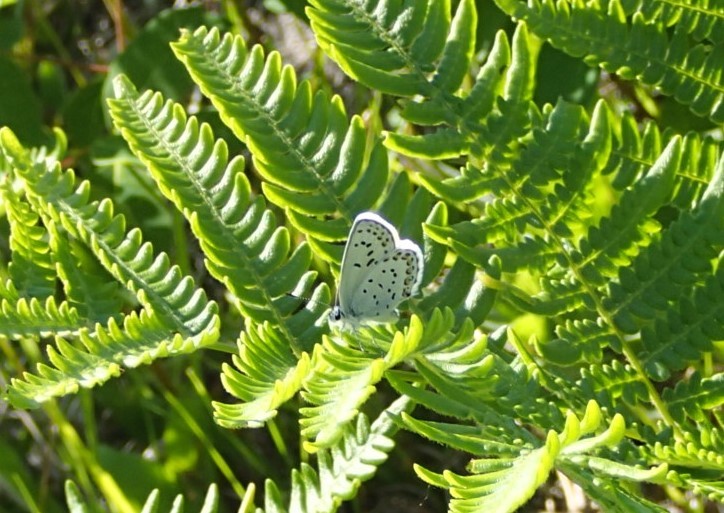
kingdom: Animalia
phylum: Arthropoda
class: Insecta
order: Lepidoptera
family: Lycaenidae
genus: Lycaeides
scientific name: Lycaeides idas
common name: Northern blue
